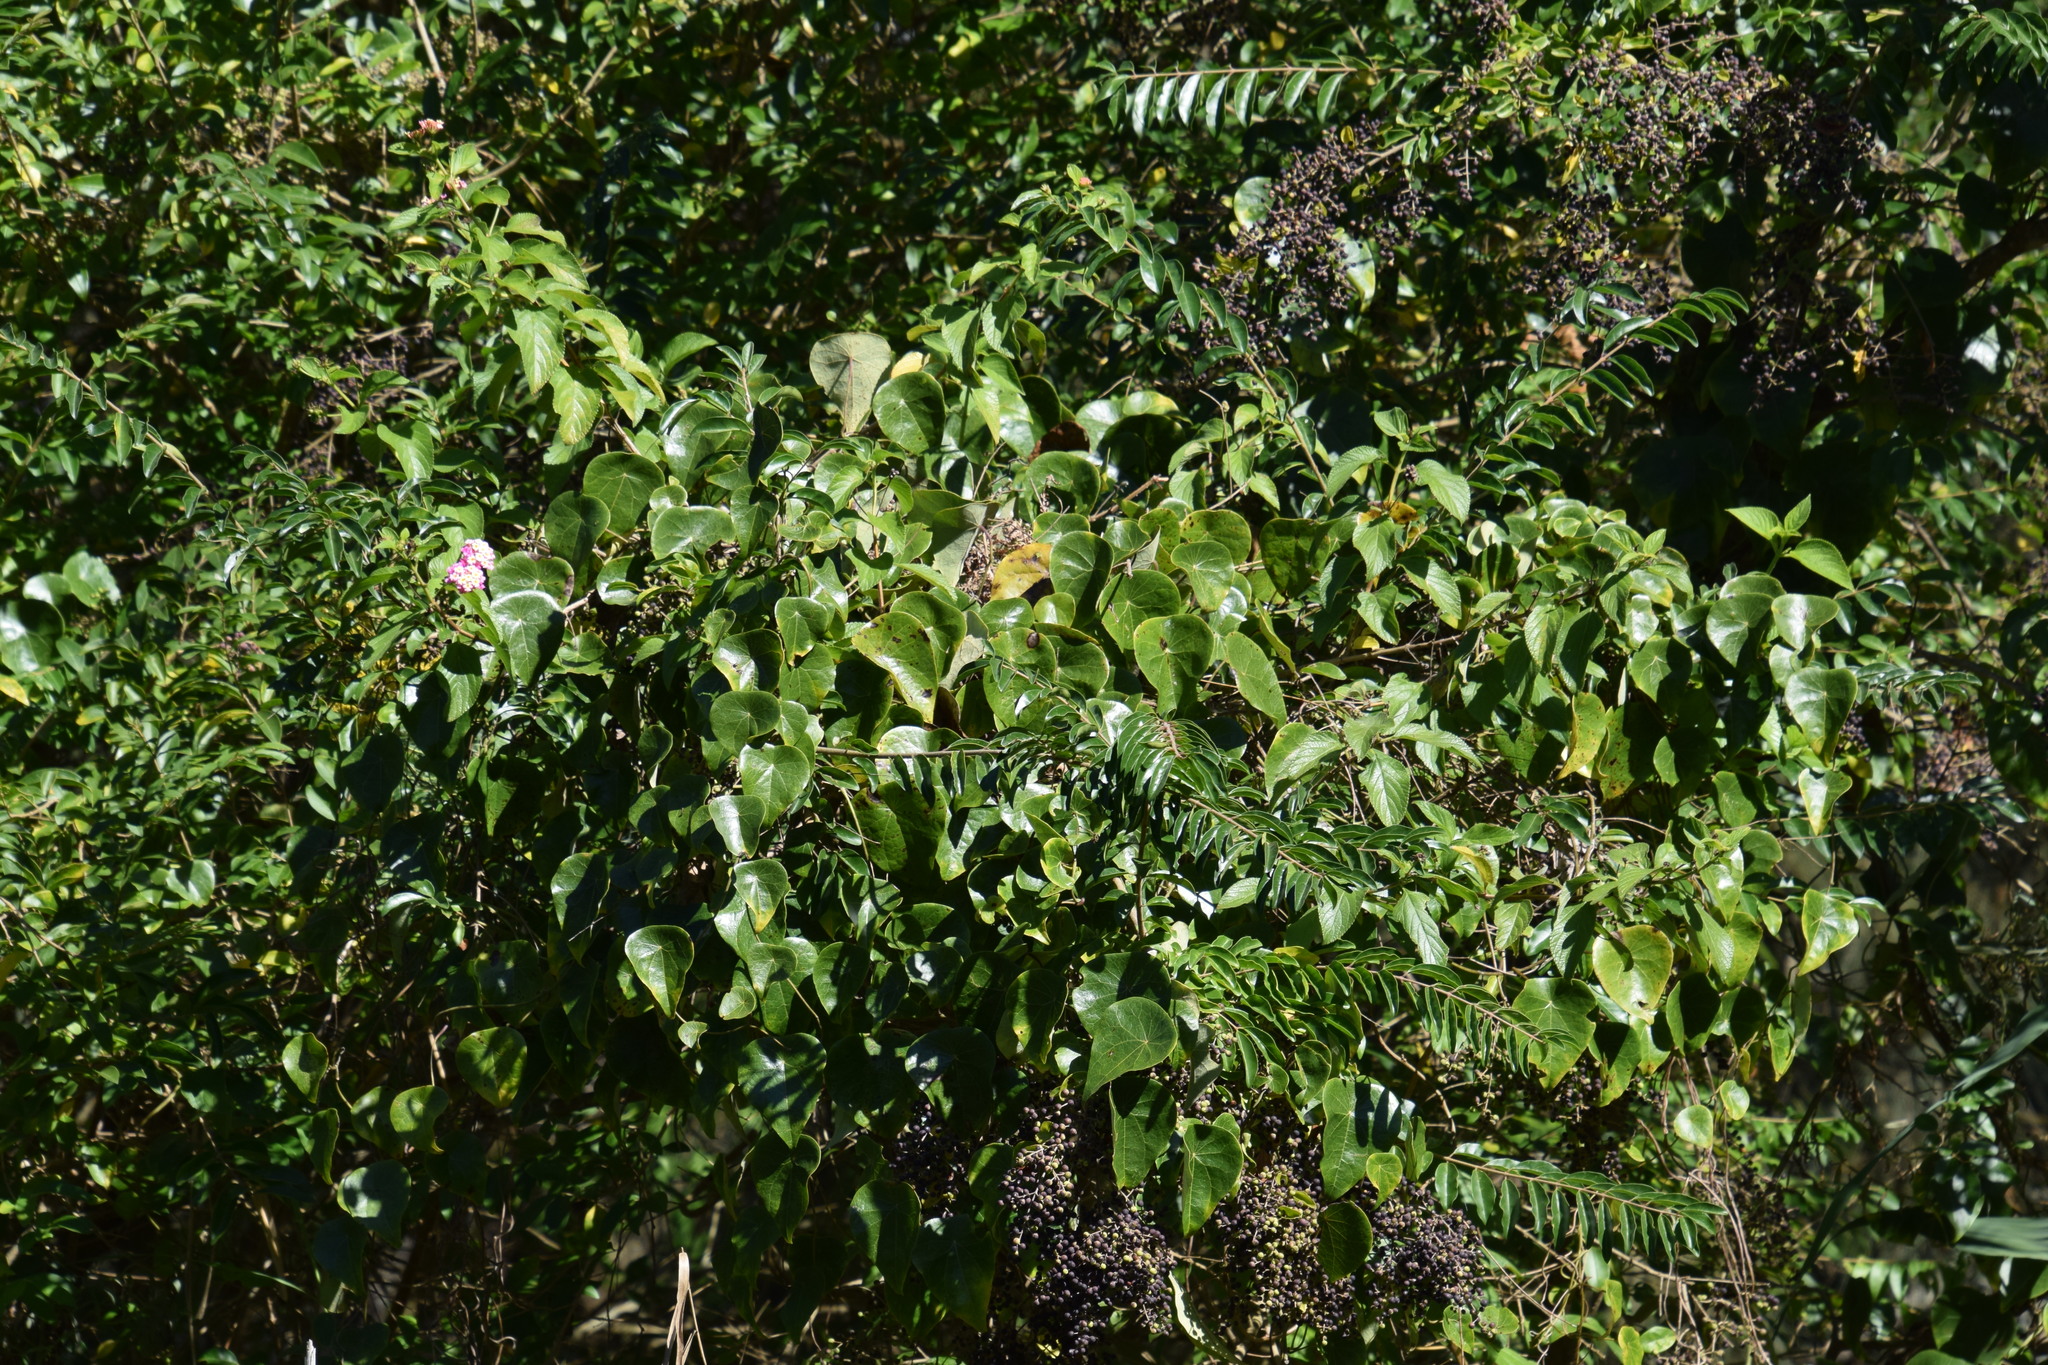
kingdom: Plantae
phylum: Tracheophyta
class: Magnoliopsida
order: Ranunculales
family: Menispermaceae
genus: Stephania
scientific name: Stephania japonica
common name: Snake vine
